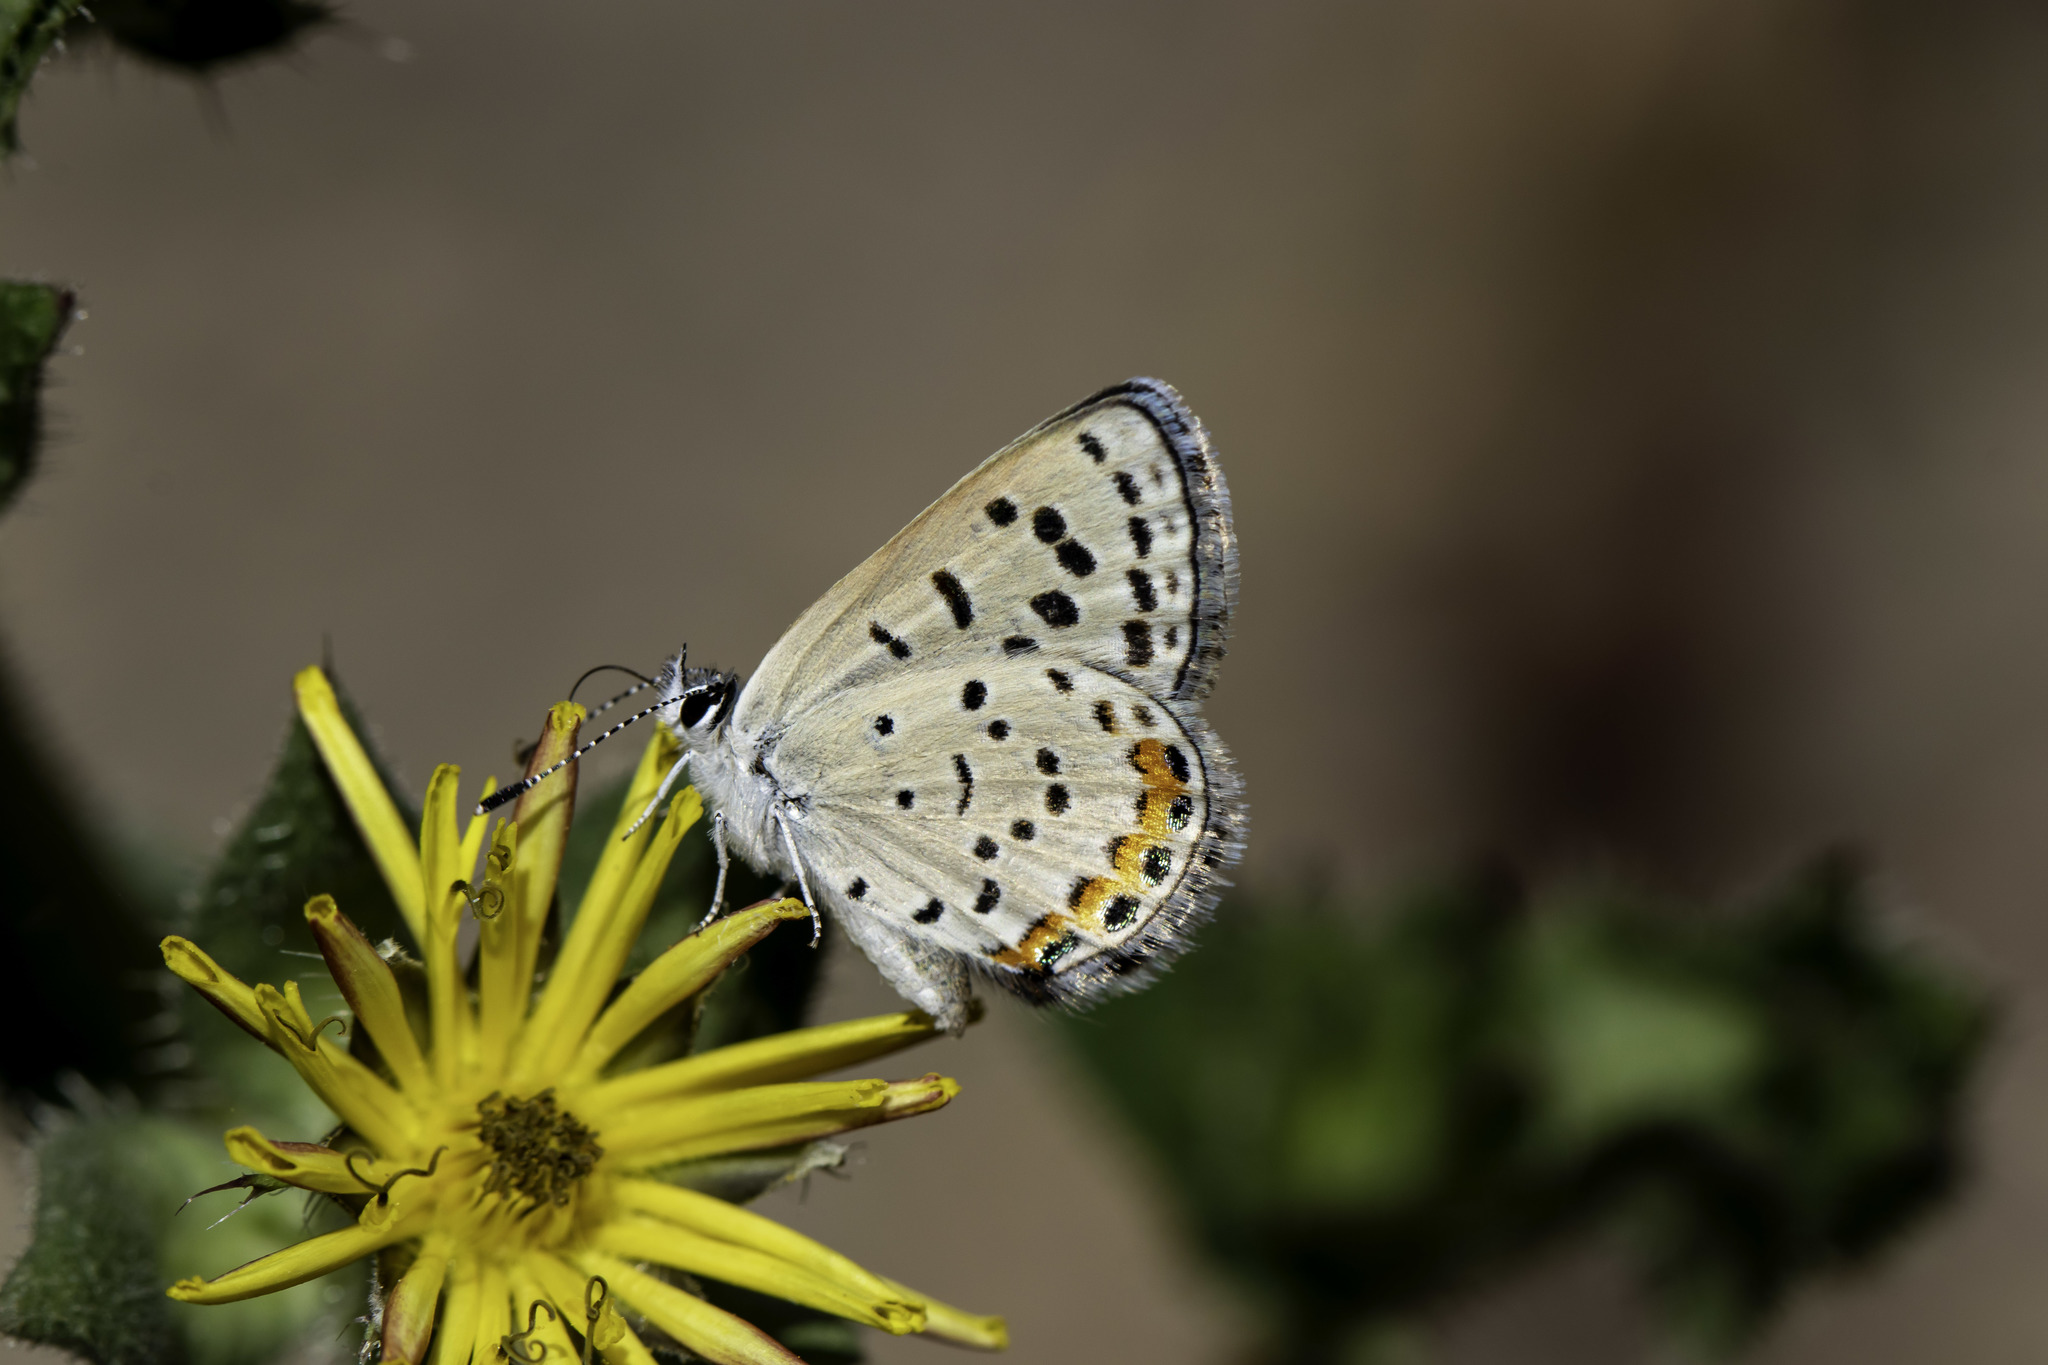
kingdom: Animalia
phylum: Arthropoda
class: Insecta
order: Lepidoptera
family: Lycaenidae
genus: Icaricia
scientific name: Icaricia acmon
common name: Acmon blue
